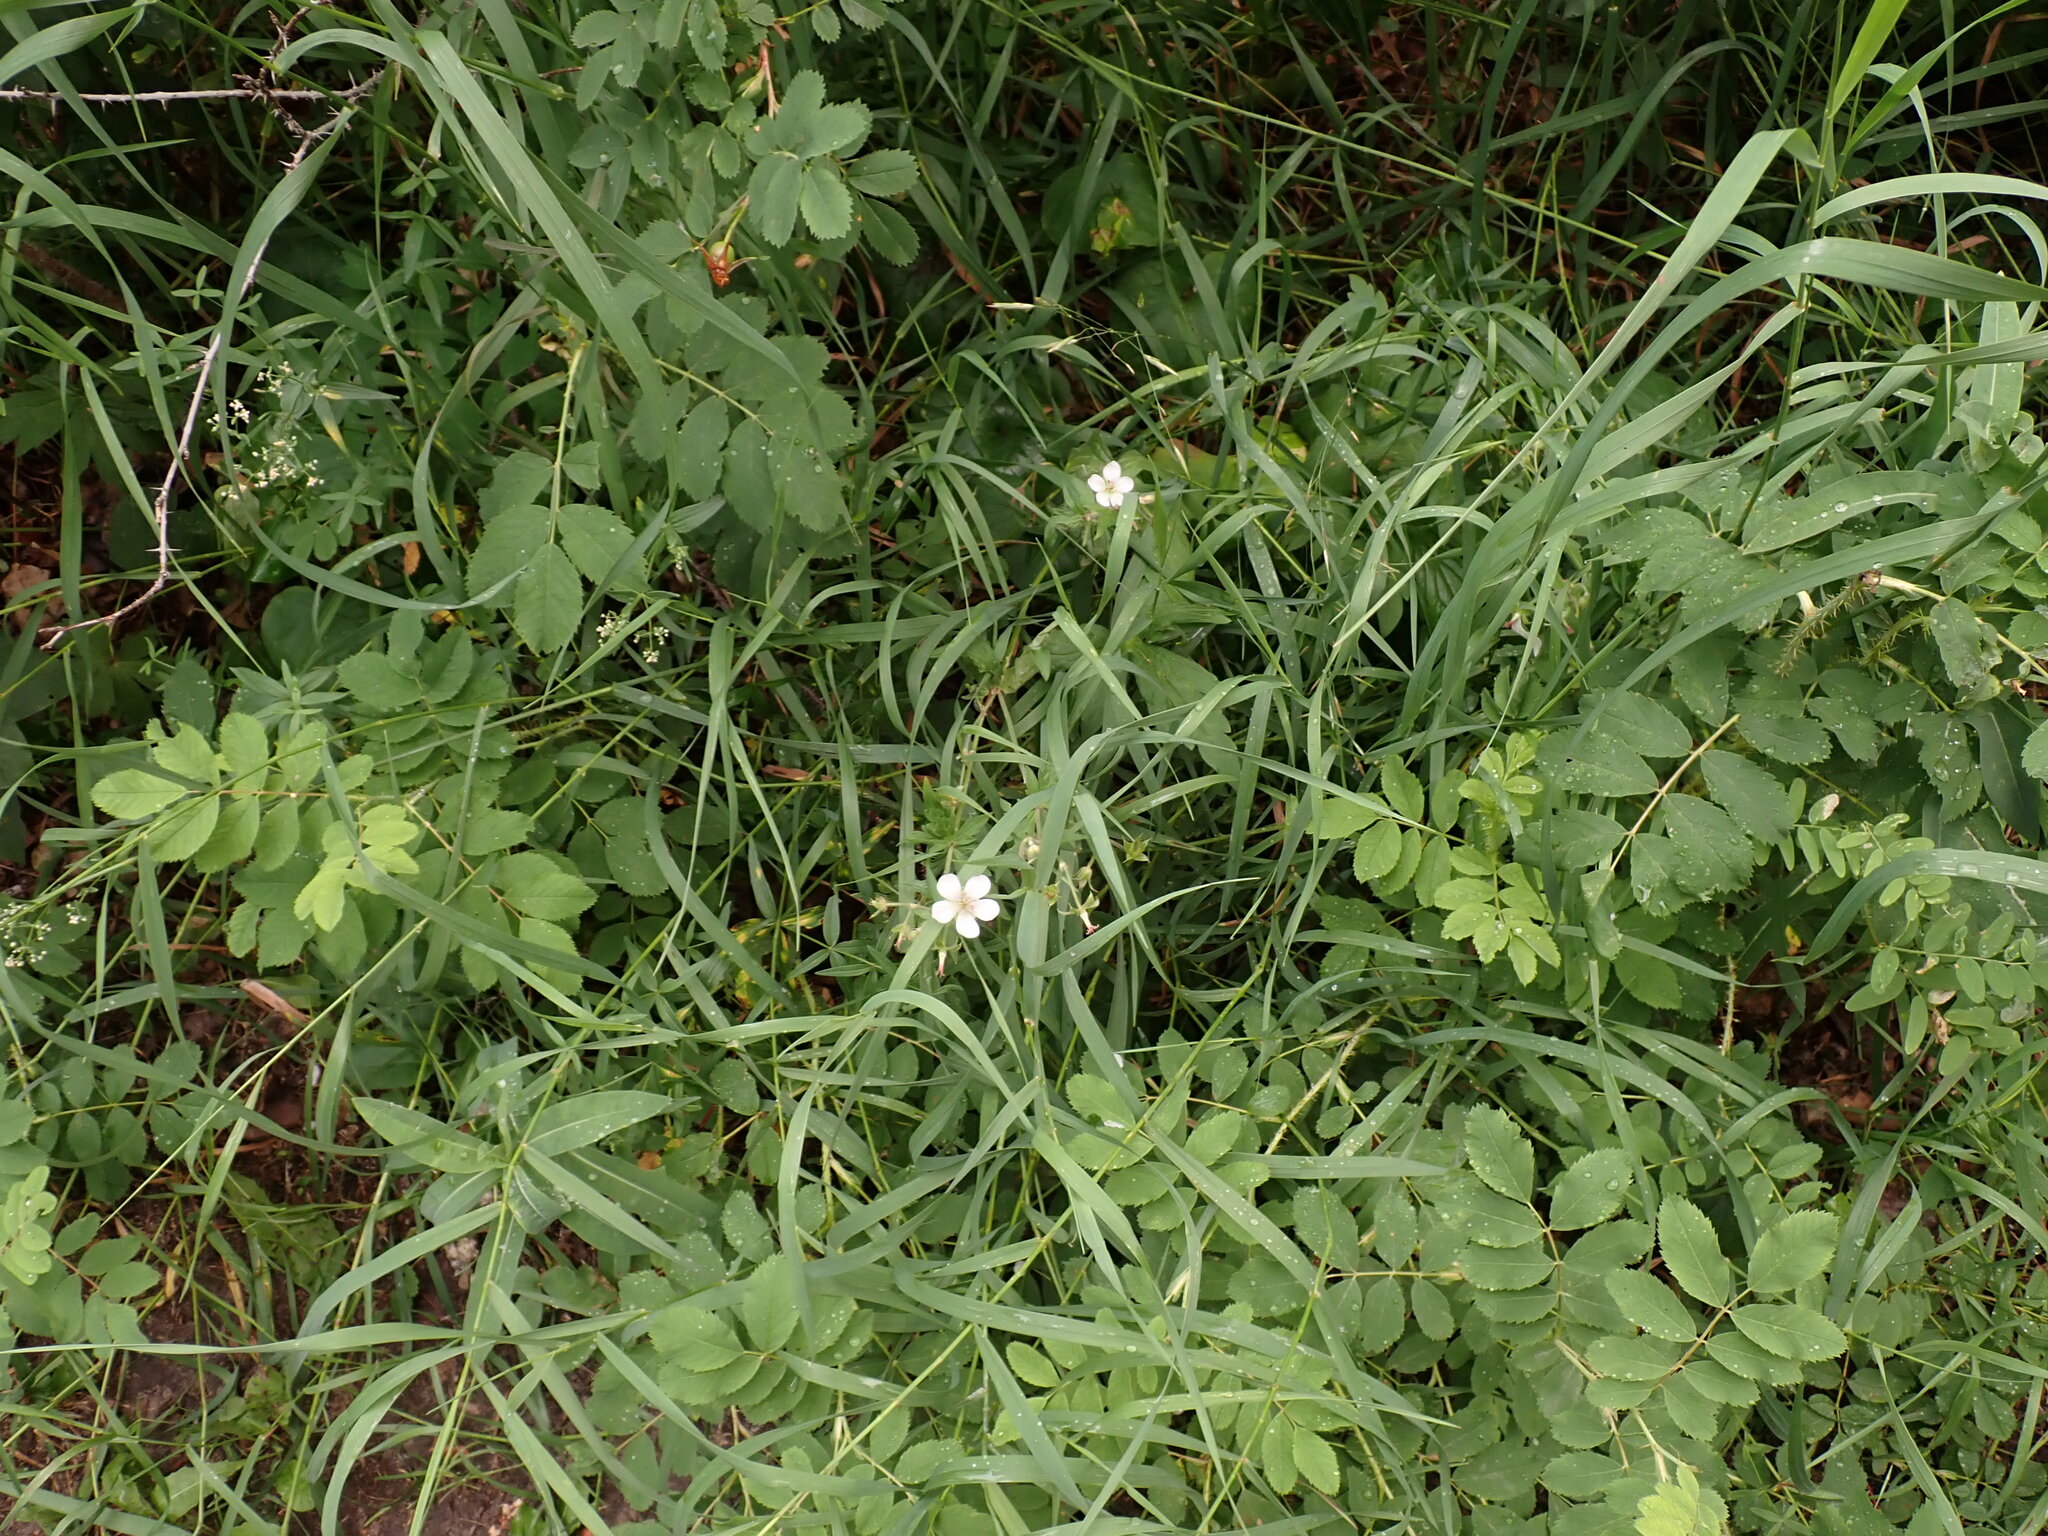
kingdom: Plantae
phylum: Tracheophyta
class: Magnoliopsida
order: Geraniales
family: Geraniaceae
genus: Geranium
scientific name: Geranium richardsonii
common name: Richardson's crane's-bill
